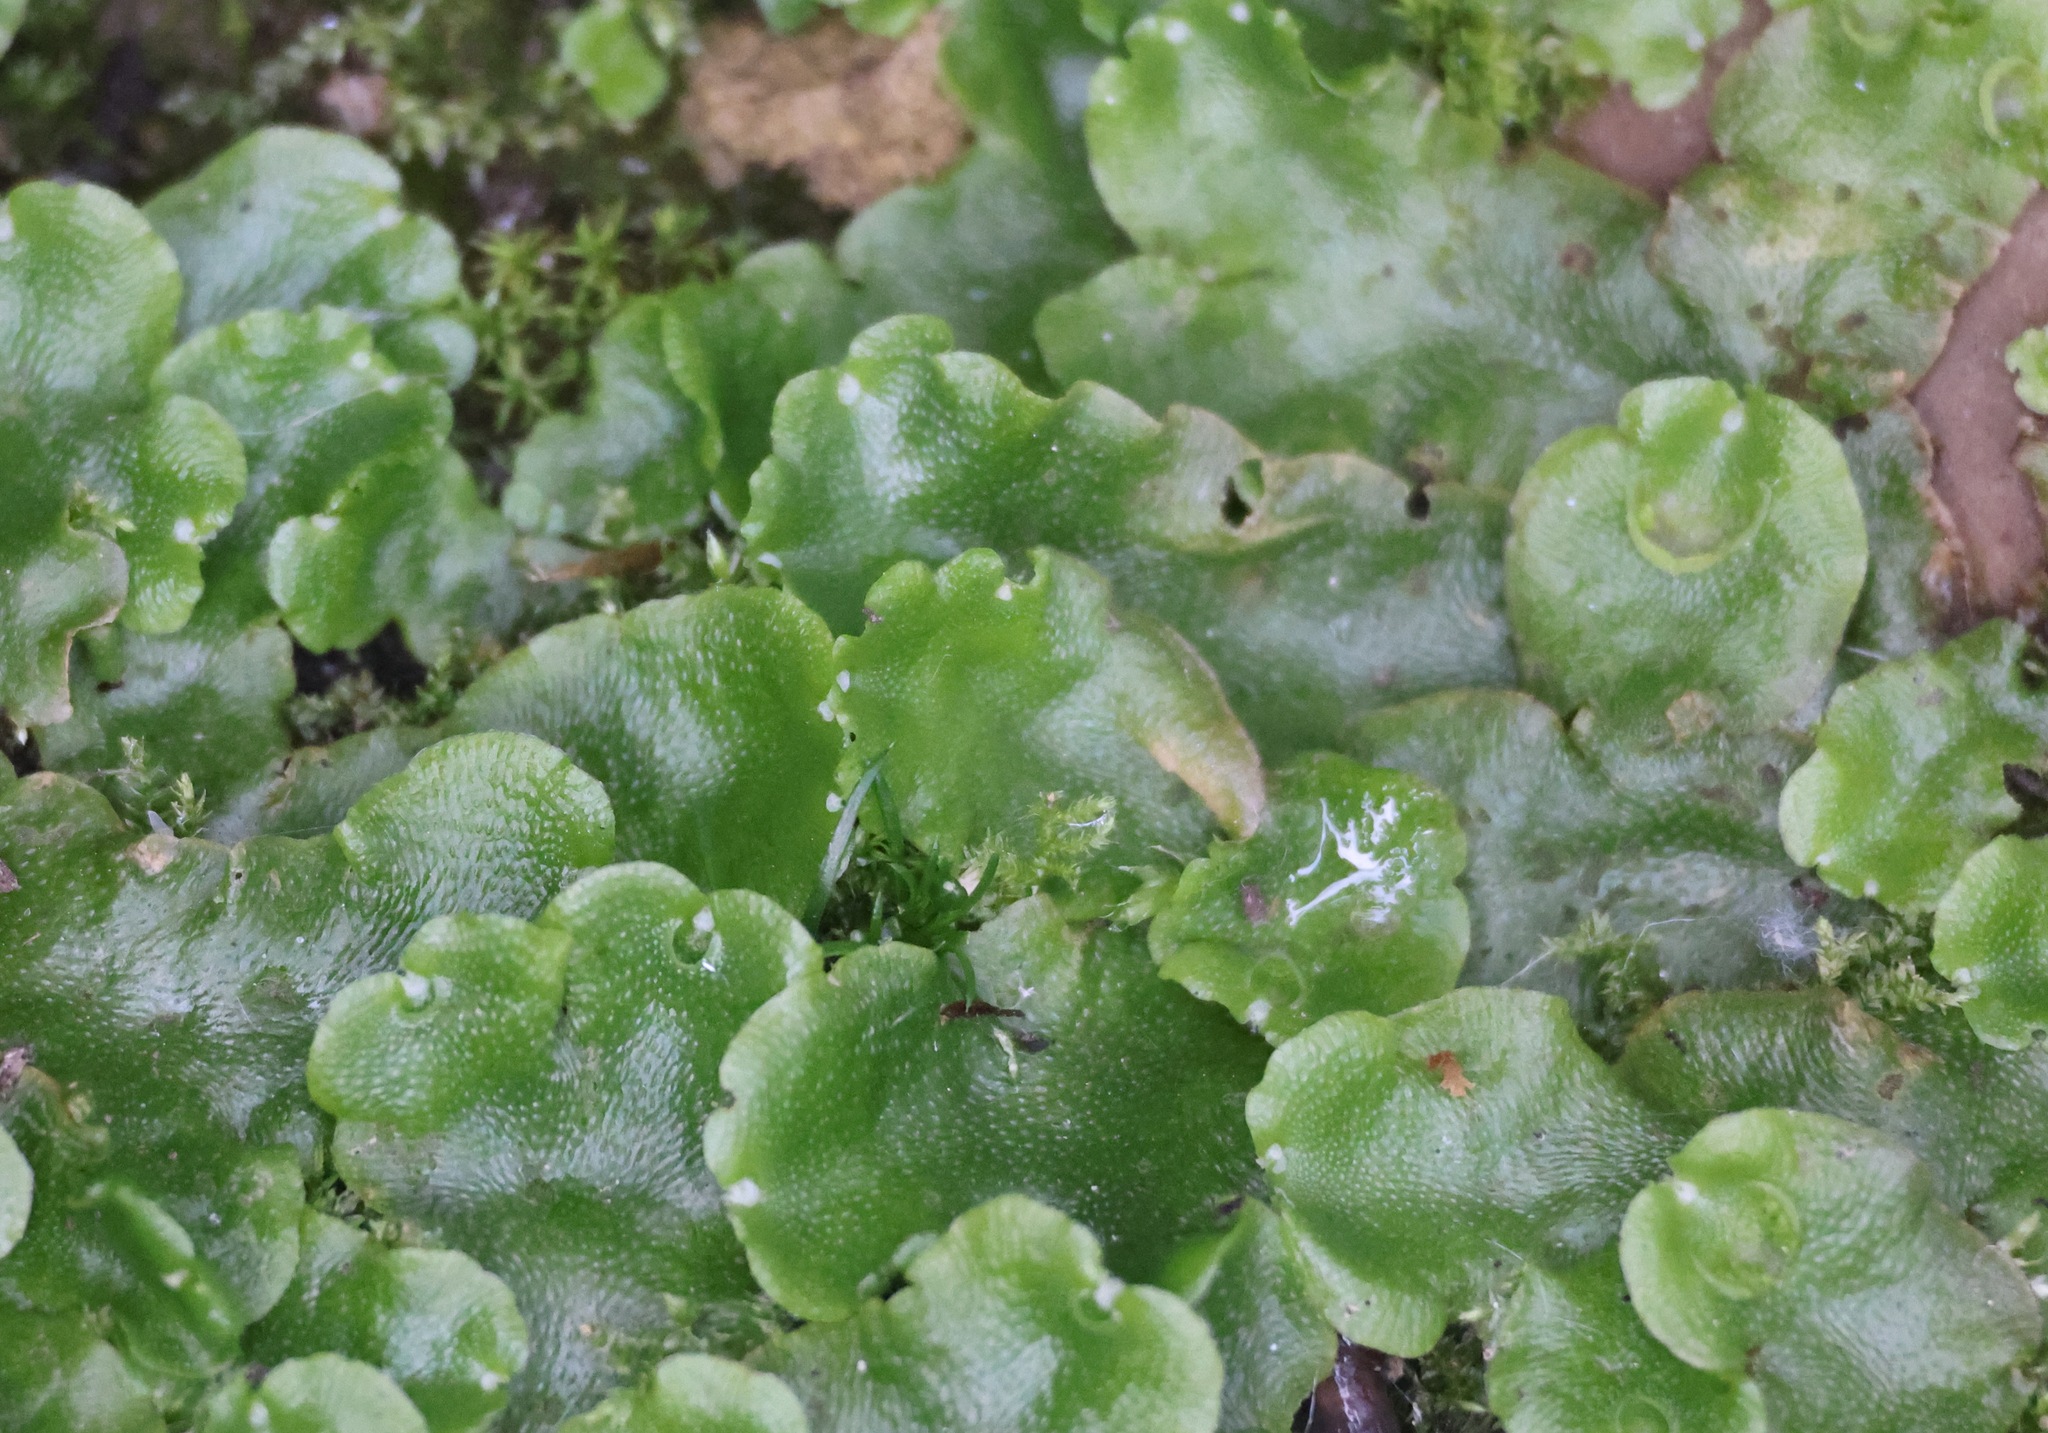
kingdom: Plantae
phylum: Marchantiophyta
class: Marchantiopsida
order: Lunulariales
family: Lunulariaceae
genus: Lunularia
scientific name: Lunularia cruciata
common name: Crescent-cup liverwort
